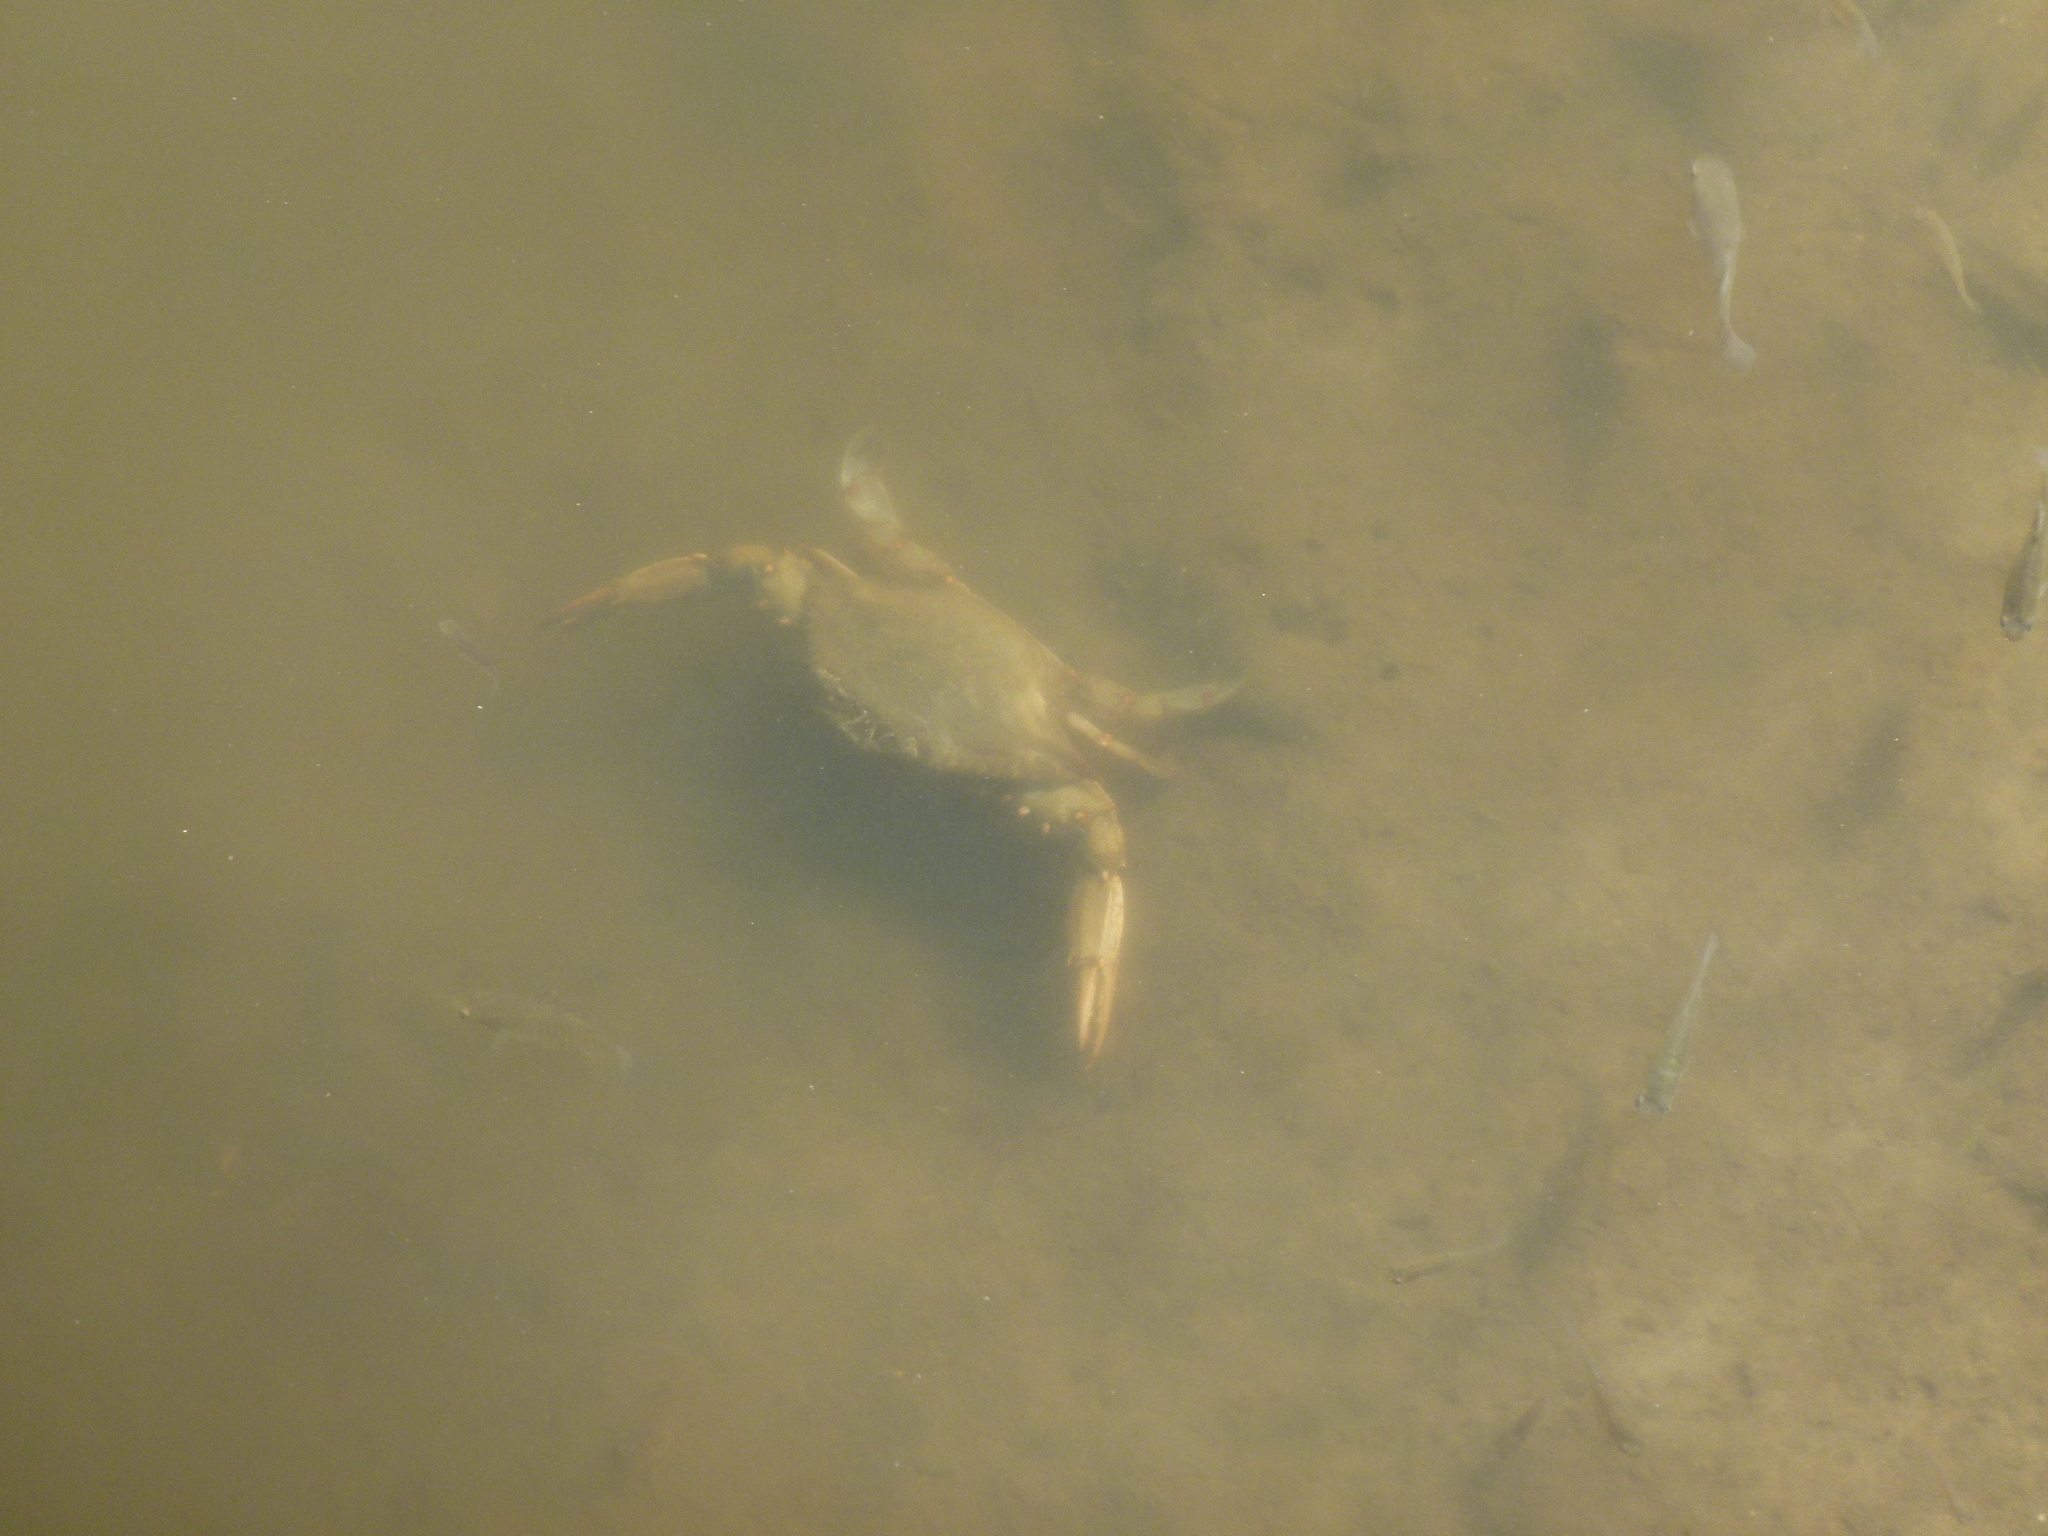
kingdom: Animalia
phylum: Arthropoda
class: Malacostraca
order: Decapoda
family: Portunidae
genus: Callinectes
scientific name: Callinectes sapidus
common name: Blue crab
